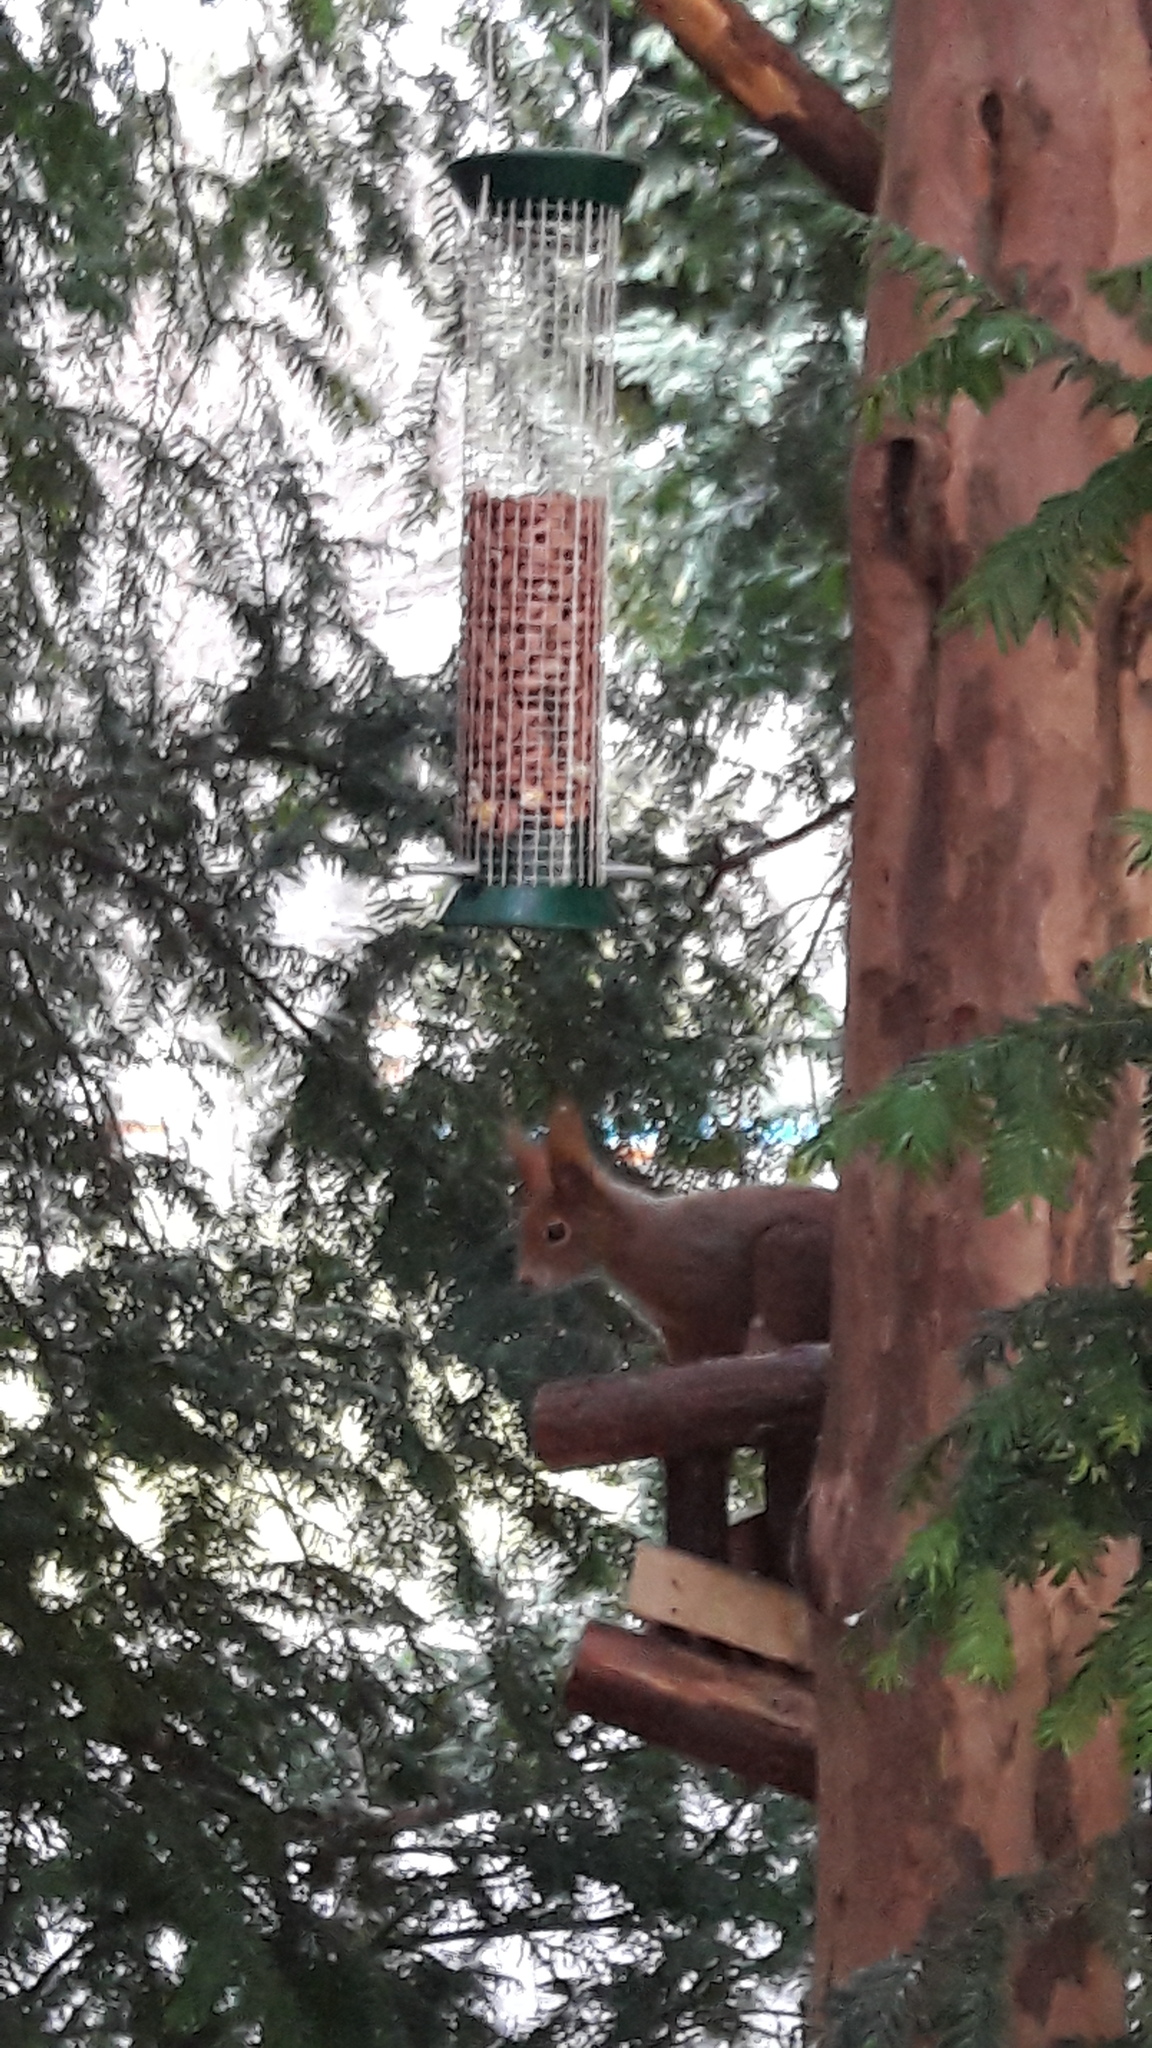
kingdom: Animalia
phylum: Chordata
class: Mammalia
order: Rodentia
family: Sciuridae
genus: Sciurus
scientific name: Sciurus vulgaris
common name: Eurasian red squirrel
